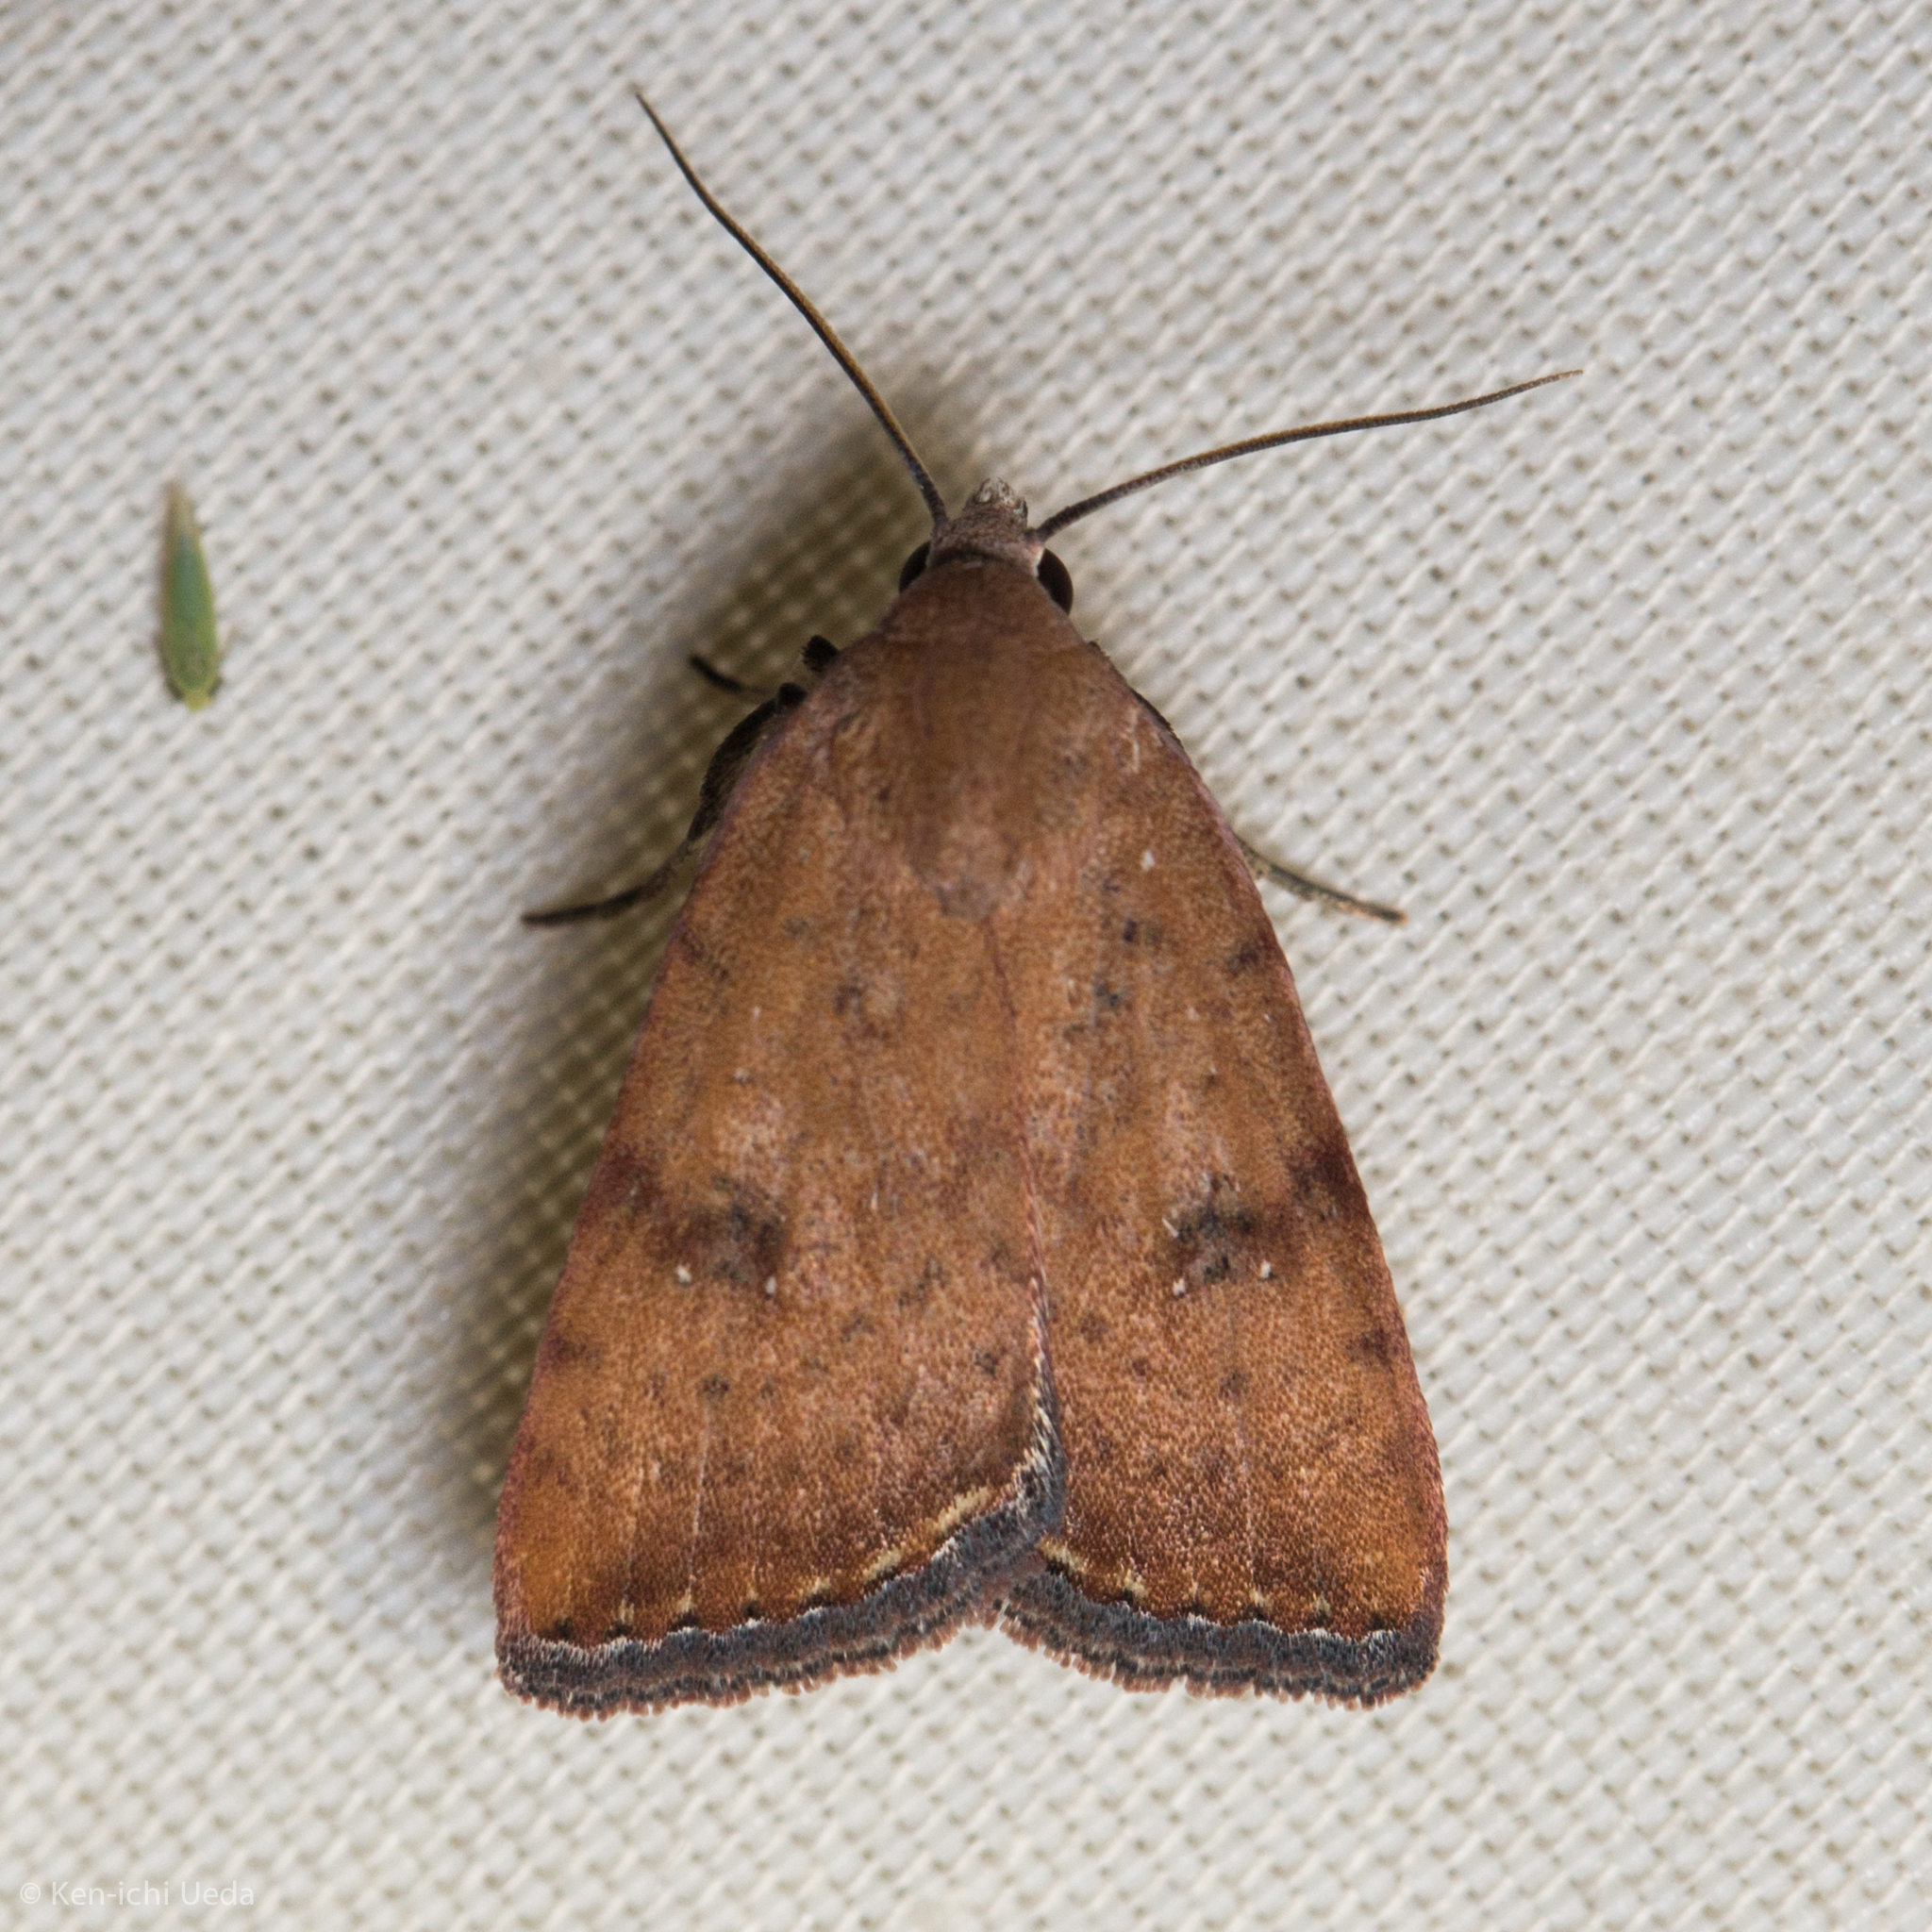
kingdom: Animalia
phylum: Arthropoda
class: Insecta
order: Lepidoptera
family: Noctuidae
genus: Micrathetis
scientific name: Micrathetis triplex
